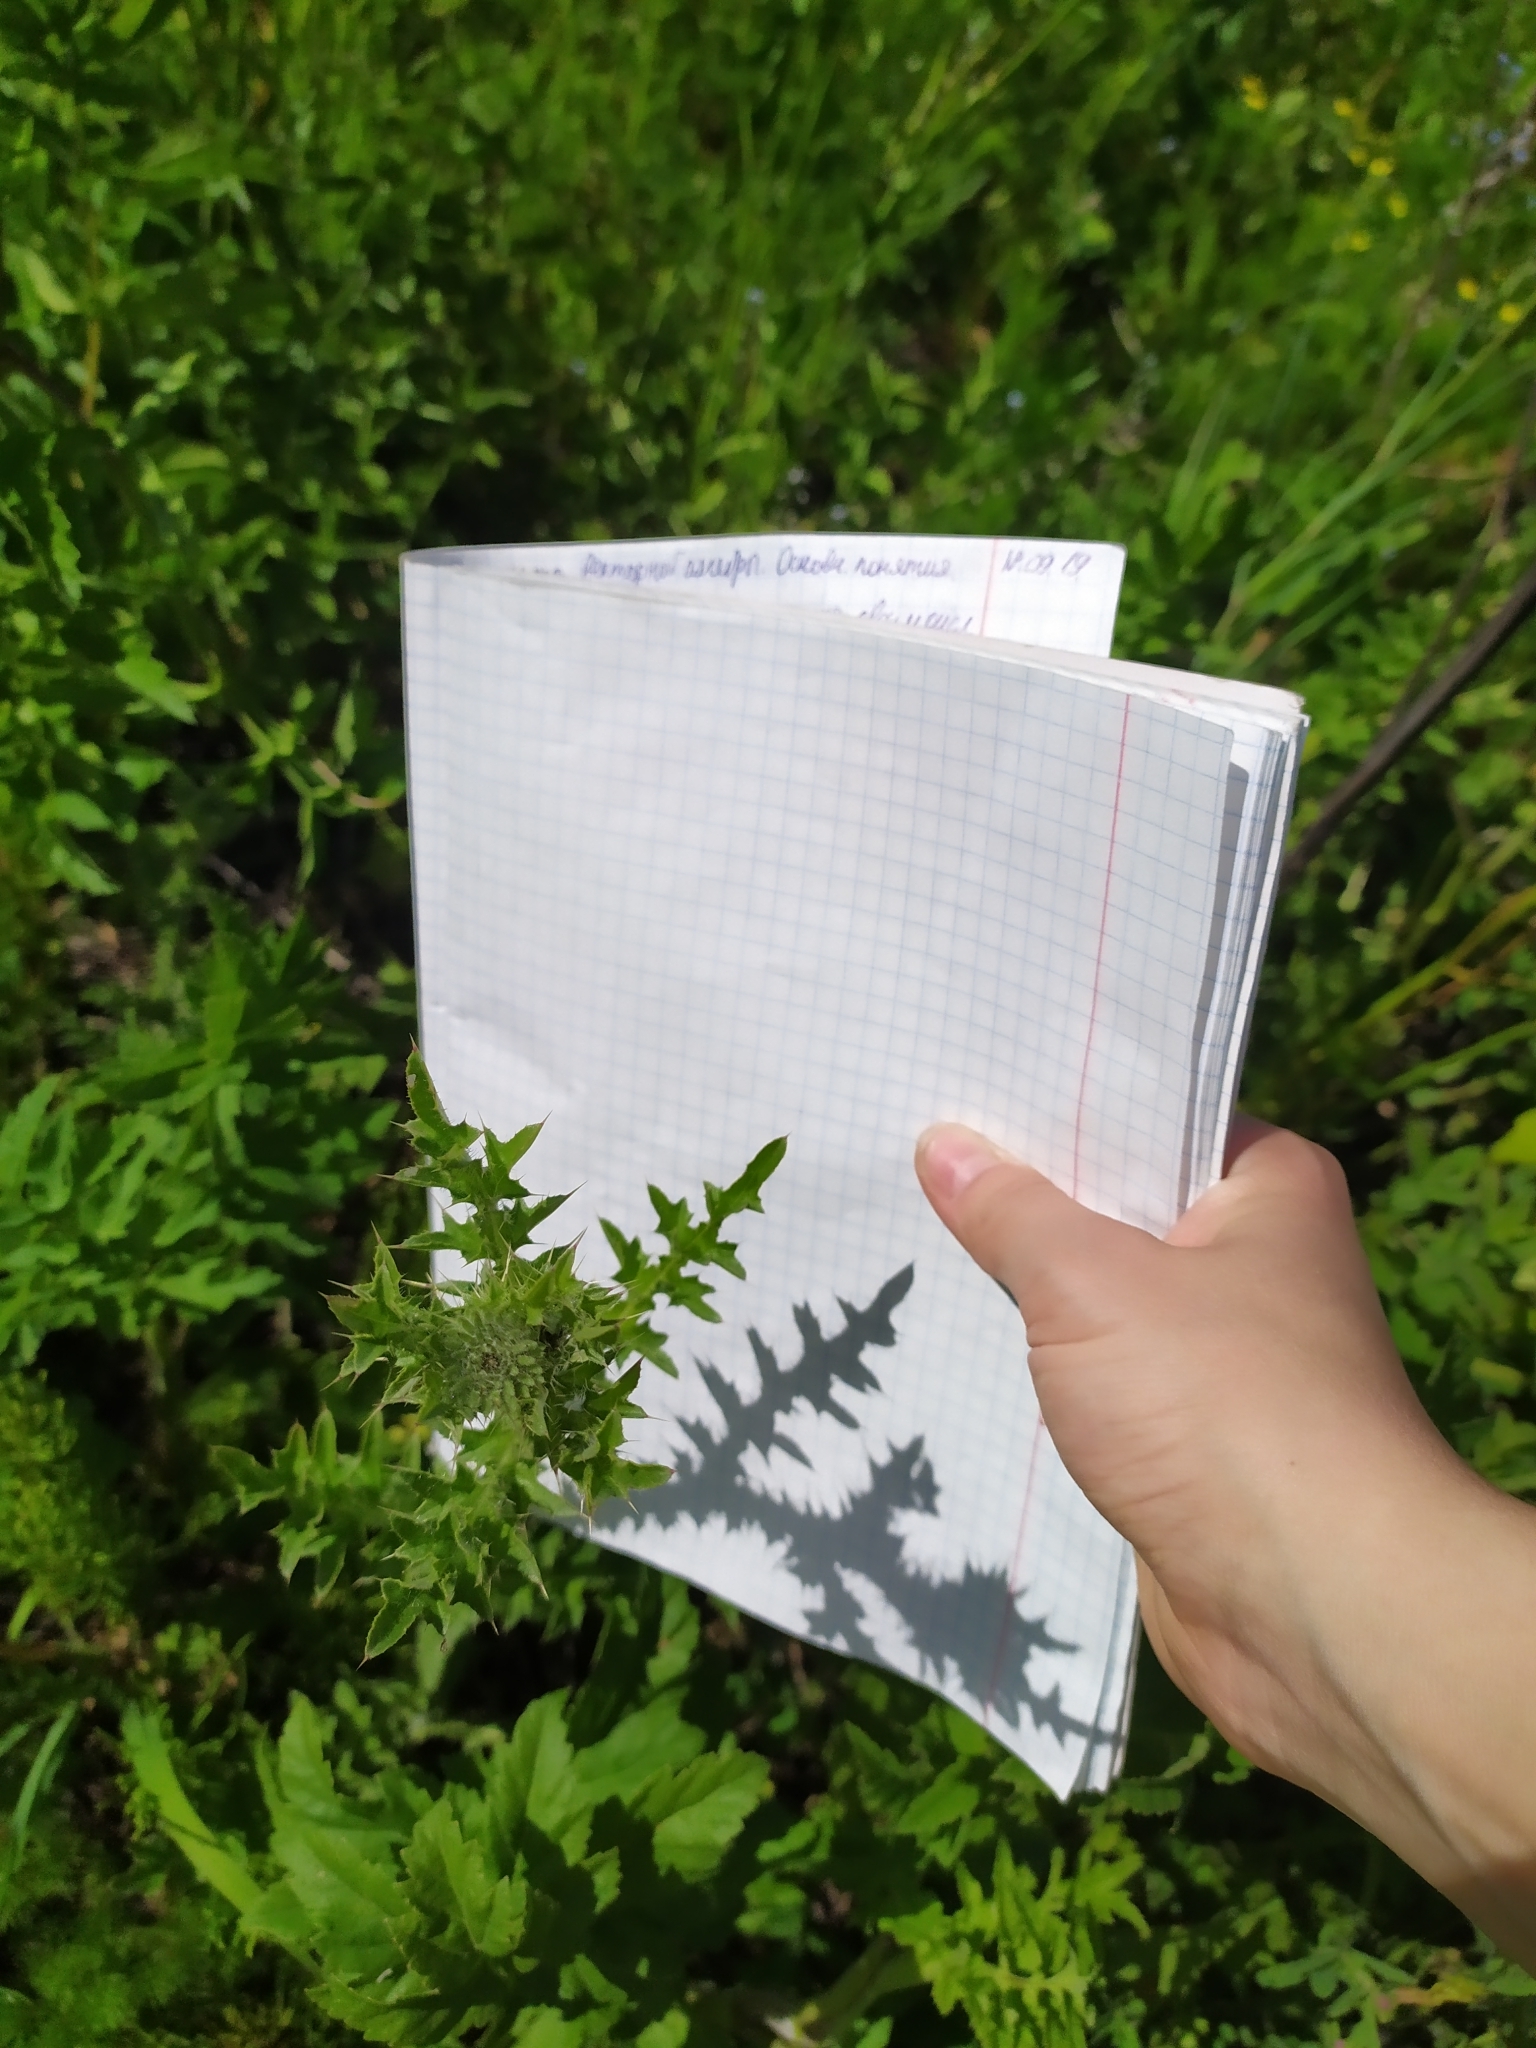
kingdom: Plantae
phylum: Tracheophyta
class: Magnoliopsida
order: Asterales
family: Asteraceae
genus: Carduus
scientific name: Carduus acanthoides
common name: Plumeless thistle
